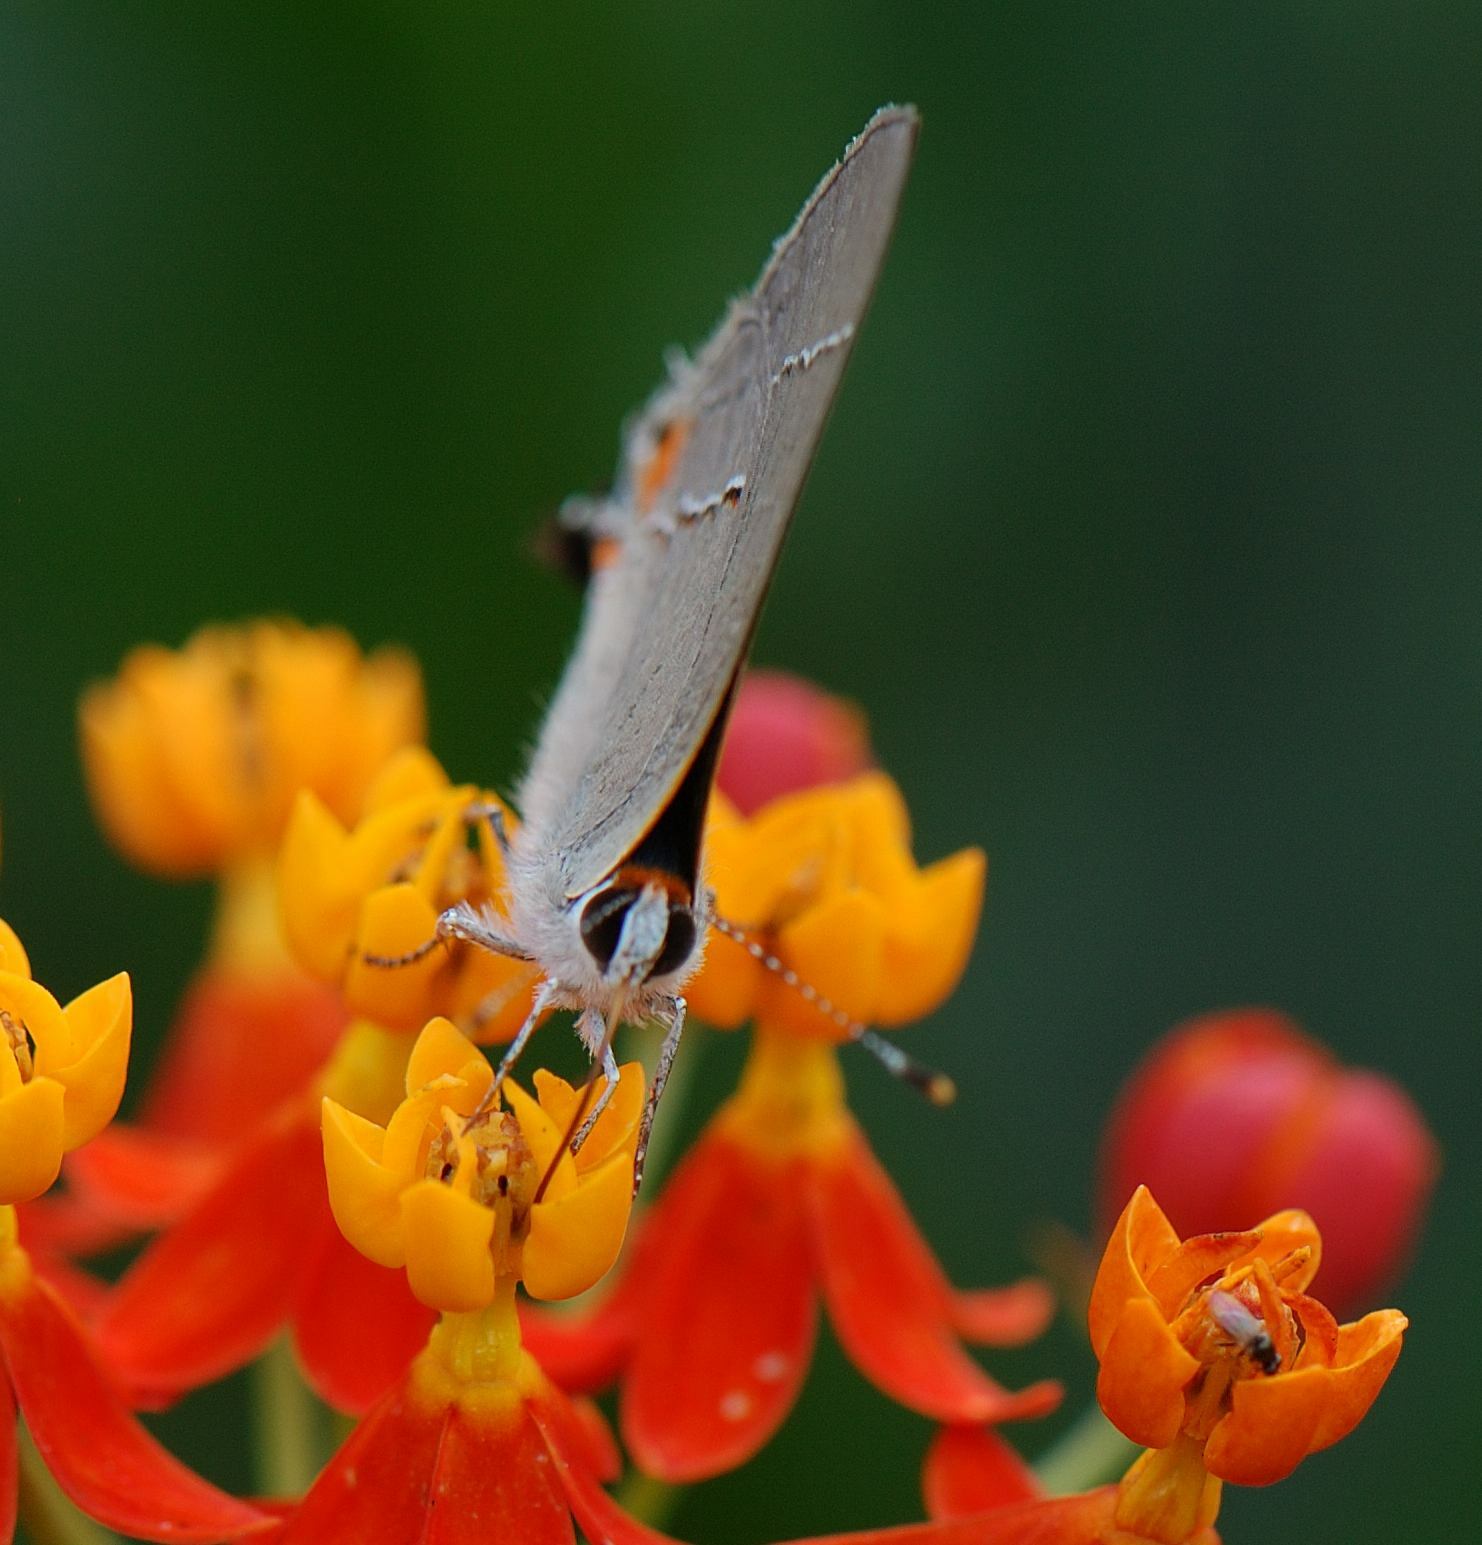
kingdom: Animalia
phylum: Arthropoda
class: Insecta
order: Lepidoptera
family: Lycaenidae
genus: Strymon
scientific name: Strymon melinus
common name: Gray hairstreak
